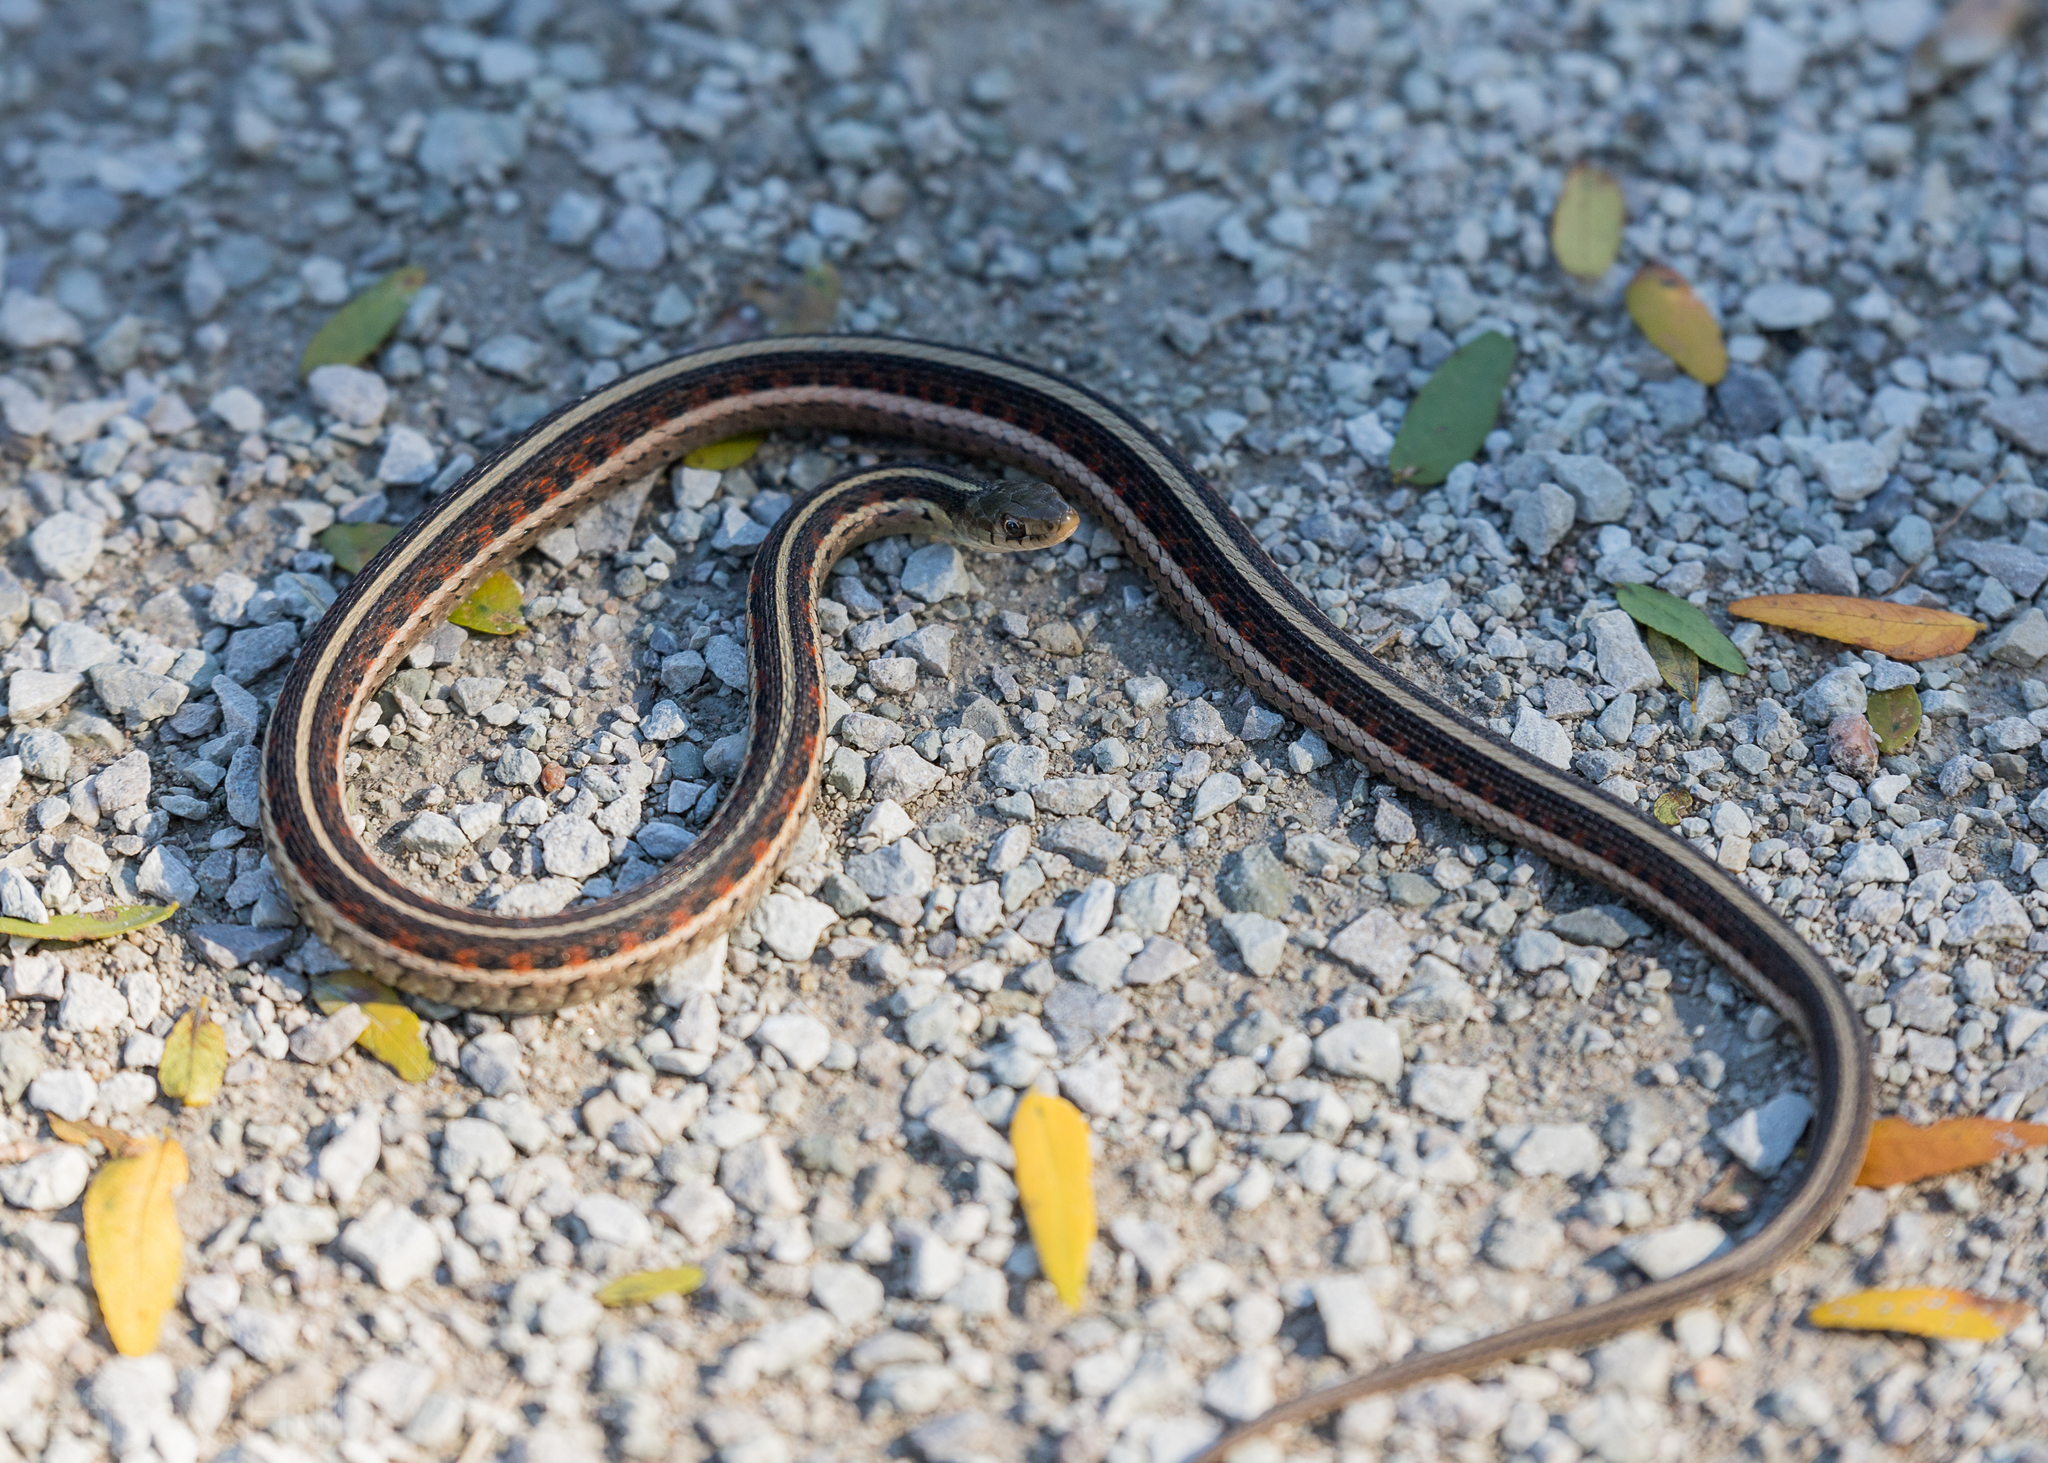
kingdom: Animalia
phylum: Chordata
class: Squamata
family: Colubridae
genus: Thamnophis
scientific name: Thamnophis sirtalis
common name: Common garter snake
